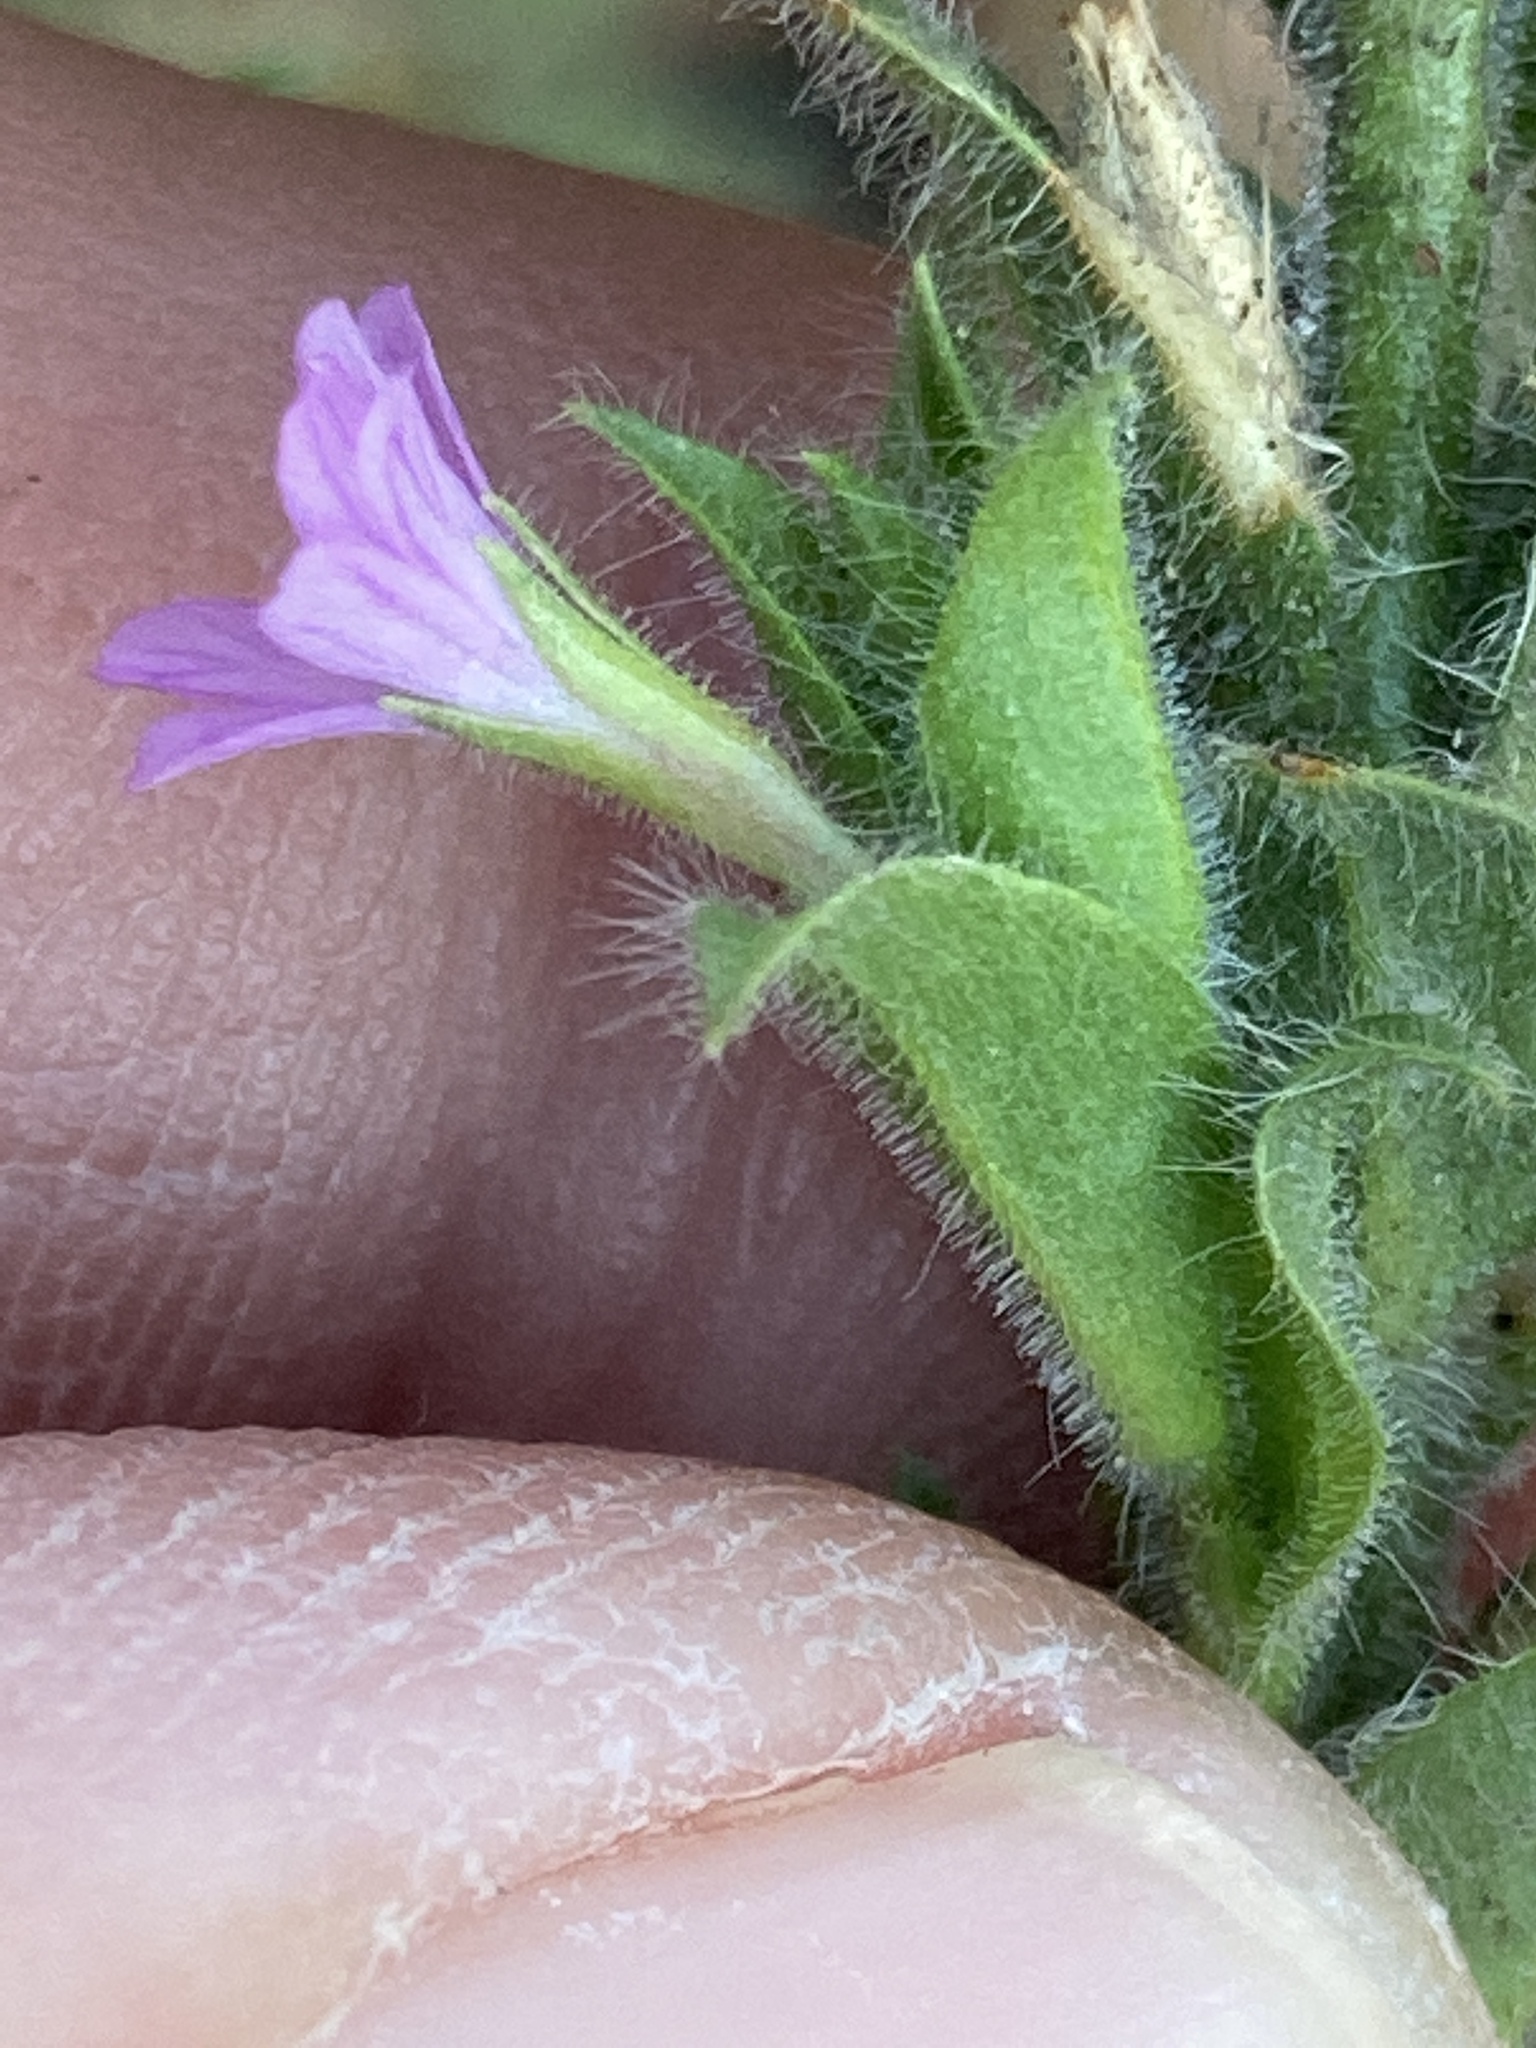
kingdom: Plantae
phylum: Tracheophyta
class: Magnoliopsida
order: Myrtales
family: Onagraceae
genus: Epilobium
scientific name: Epilobium densiflorum
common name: Dense spike-primrose
